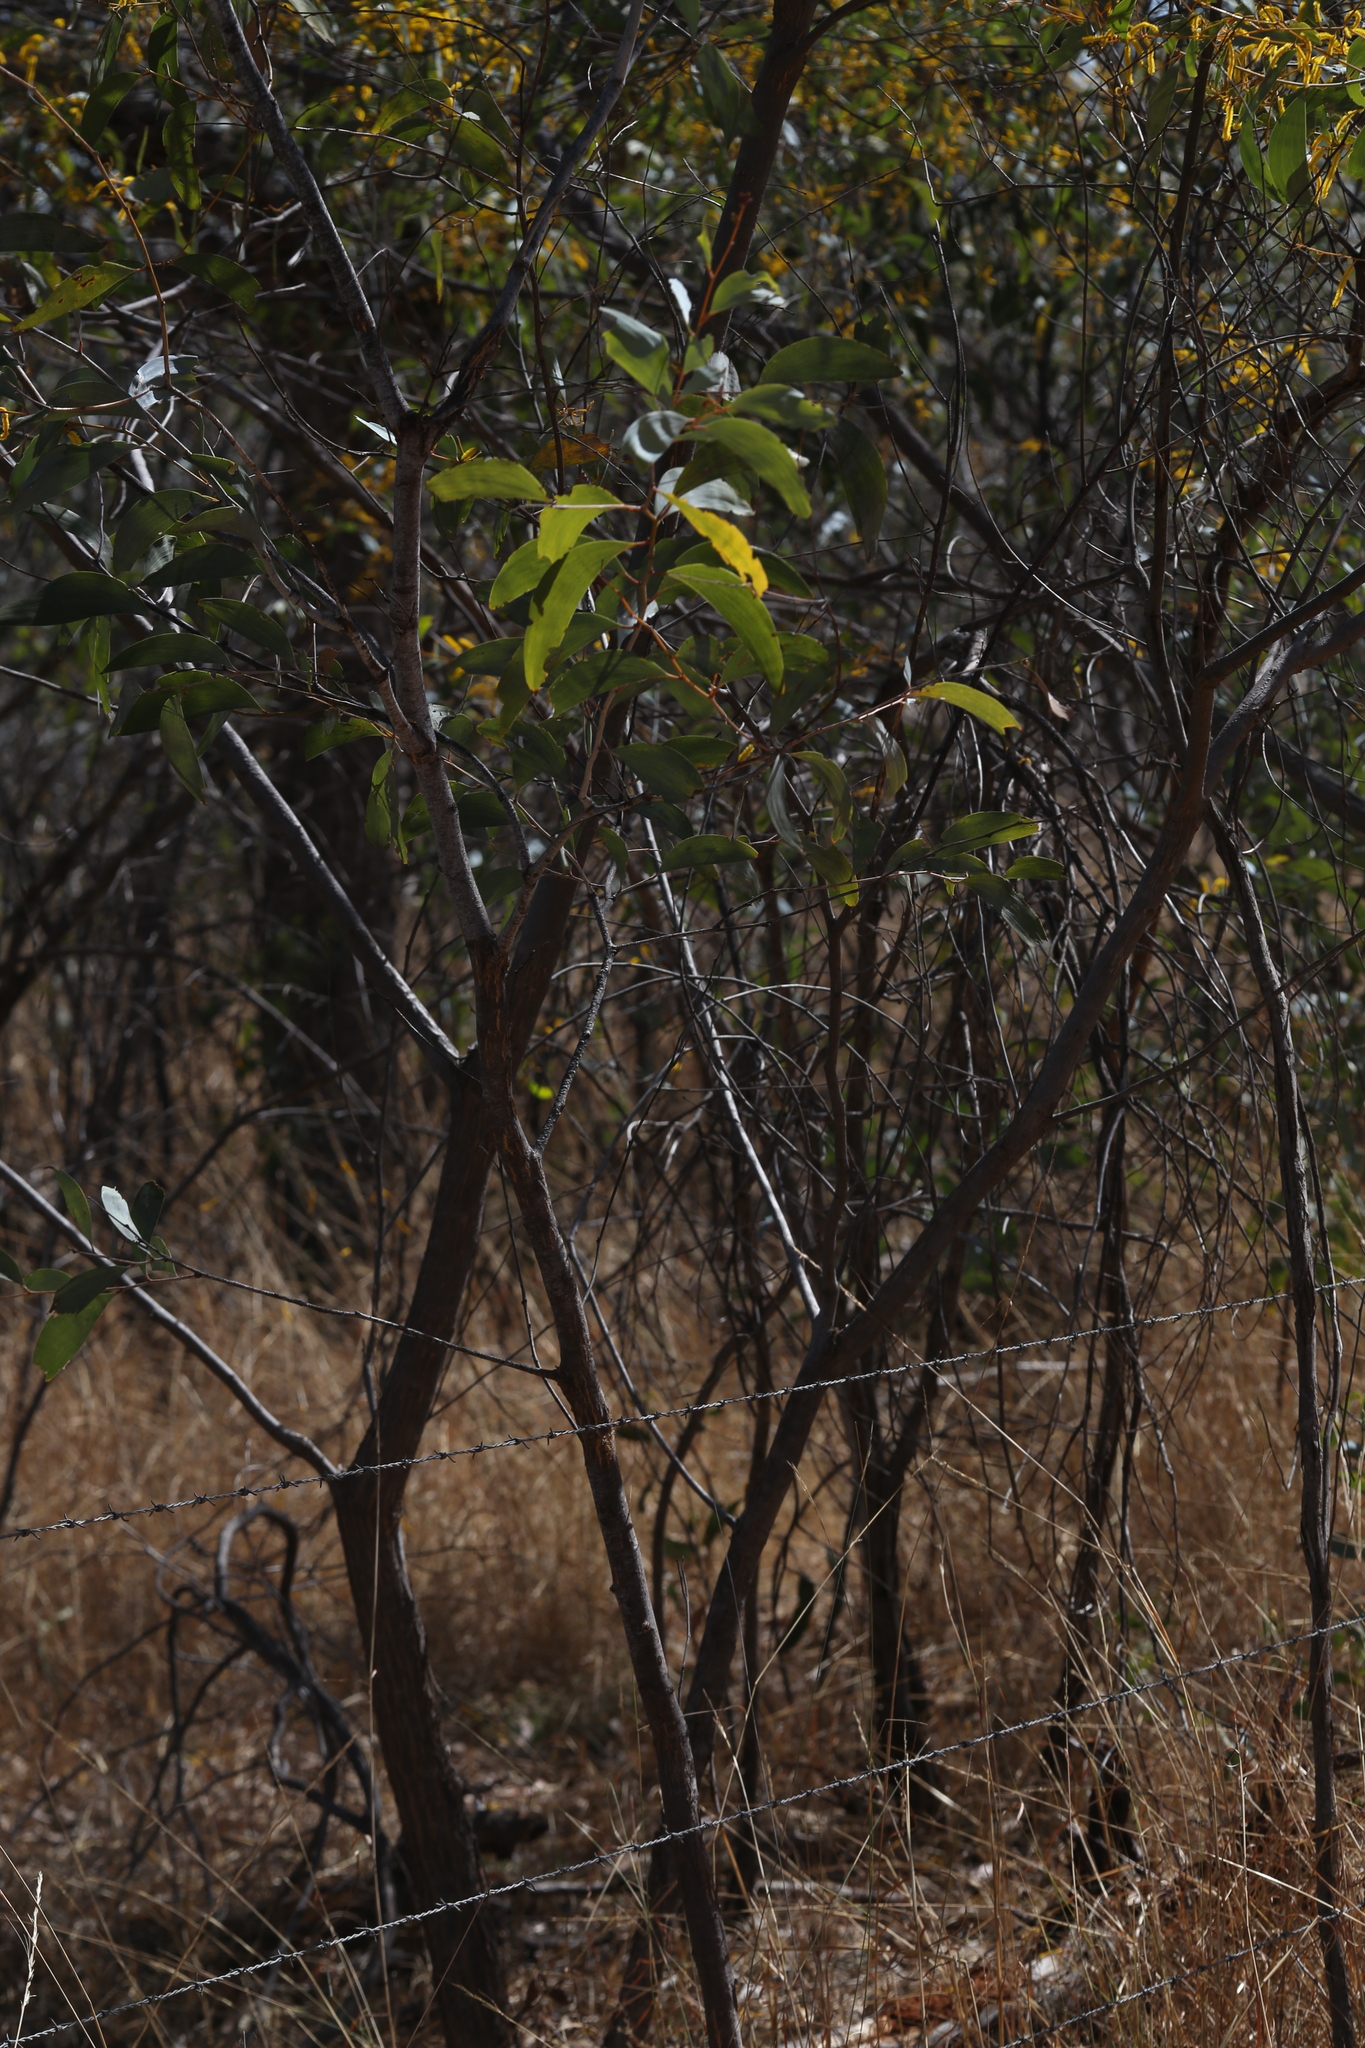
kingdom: Plantae
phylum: Tracheophyta
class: Magnoliopsida
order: Fabales
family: Fabaceae
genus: Acacia
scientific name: Acacia tumida
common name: Pindan wattle
